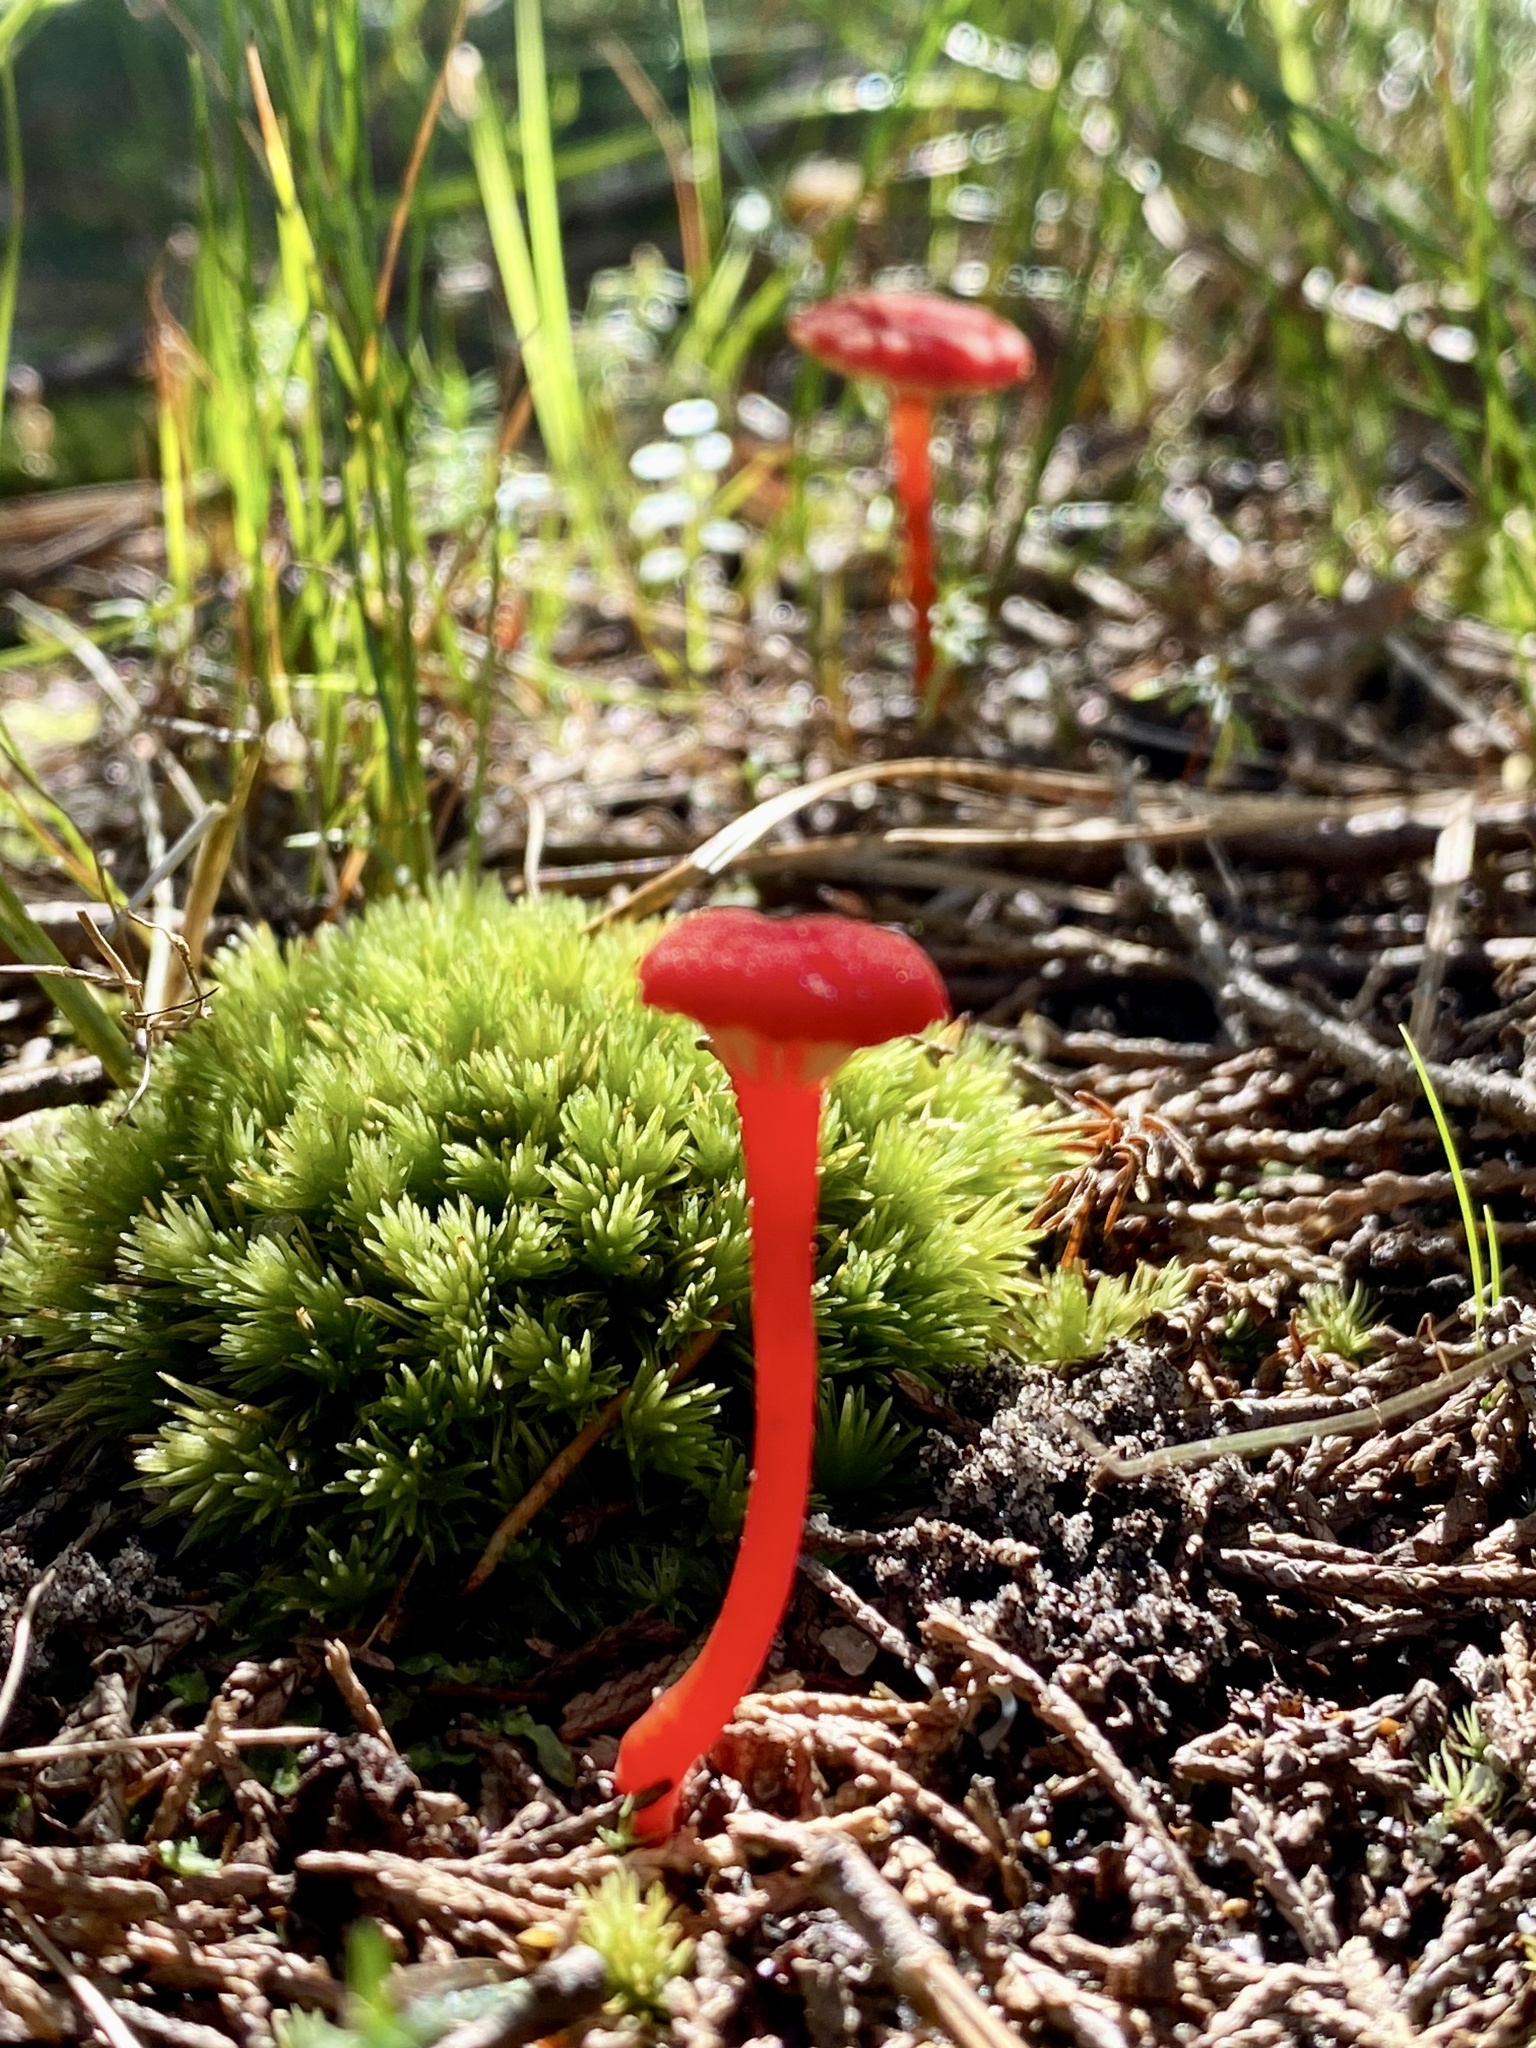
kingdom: Fungi
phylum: Basidiomycota
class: Agaricomycetes
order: Agaricales
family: Hygrophoraceae
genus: Hygrocybe
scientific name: Hygrocybe cantharellus
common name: Goblet waxcap
